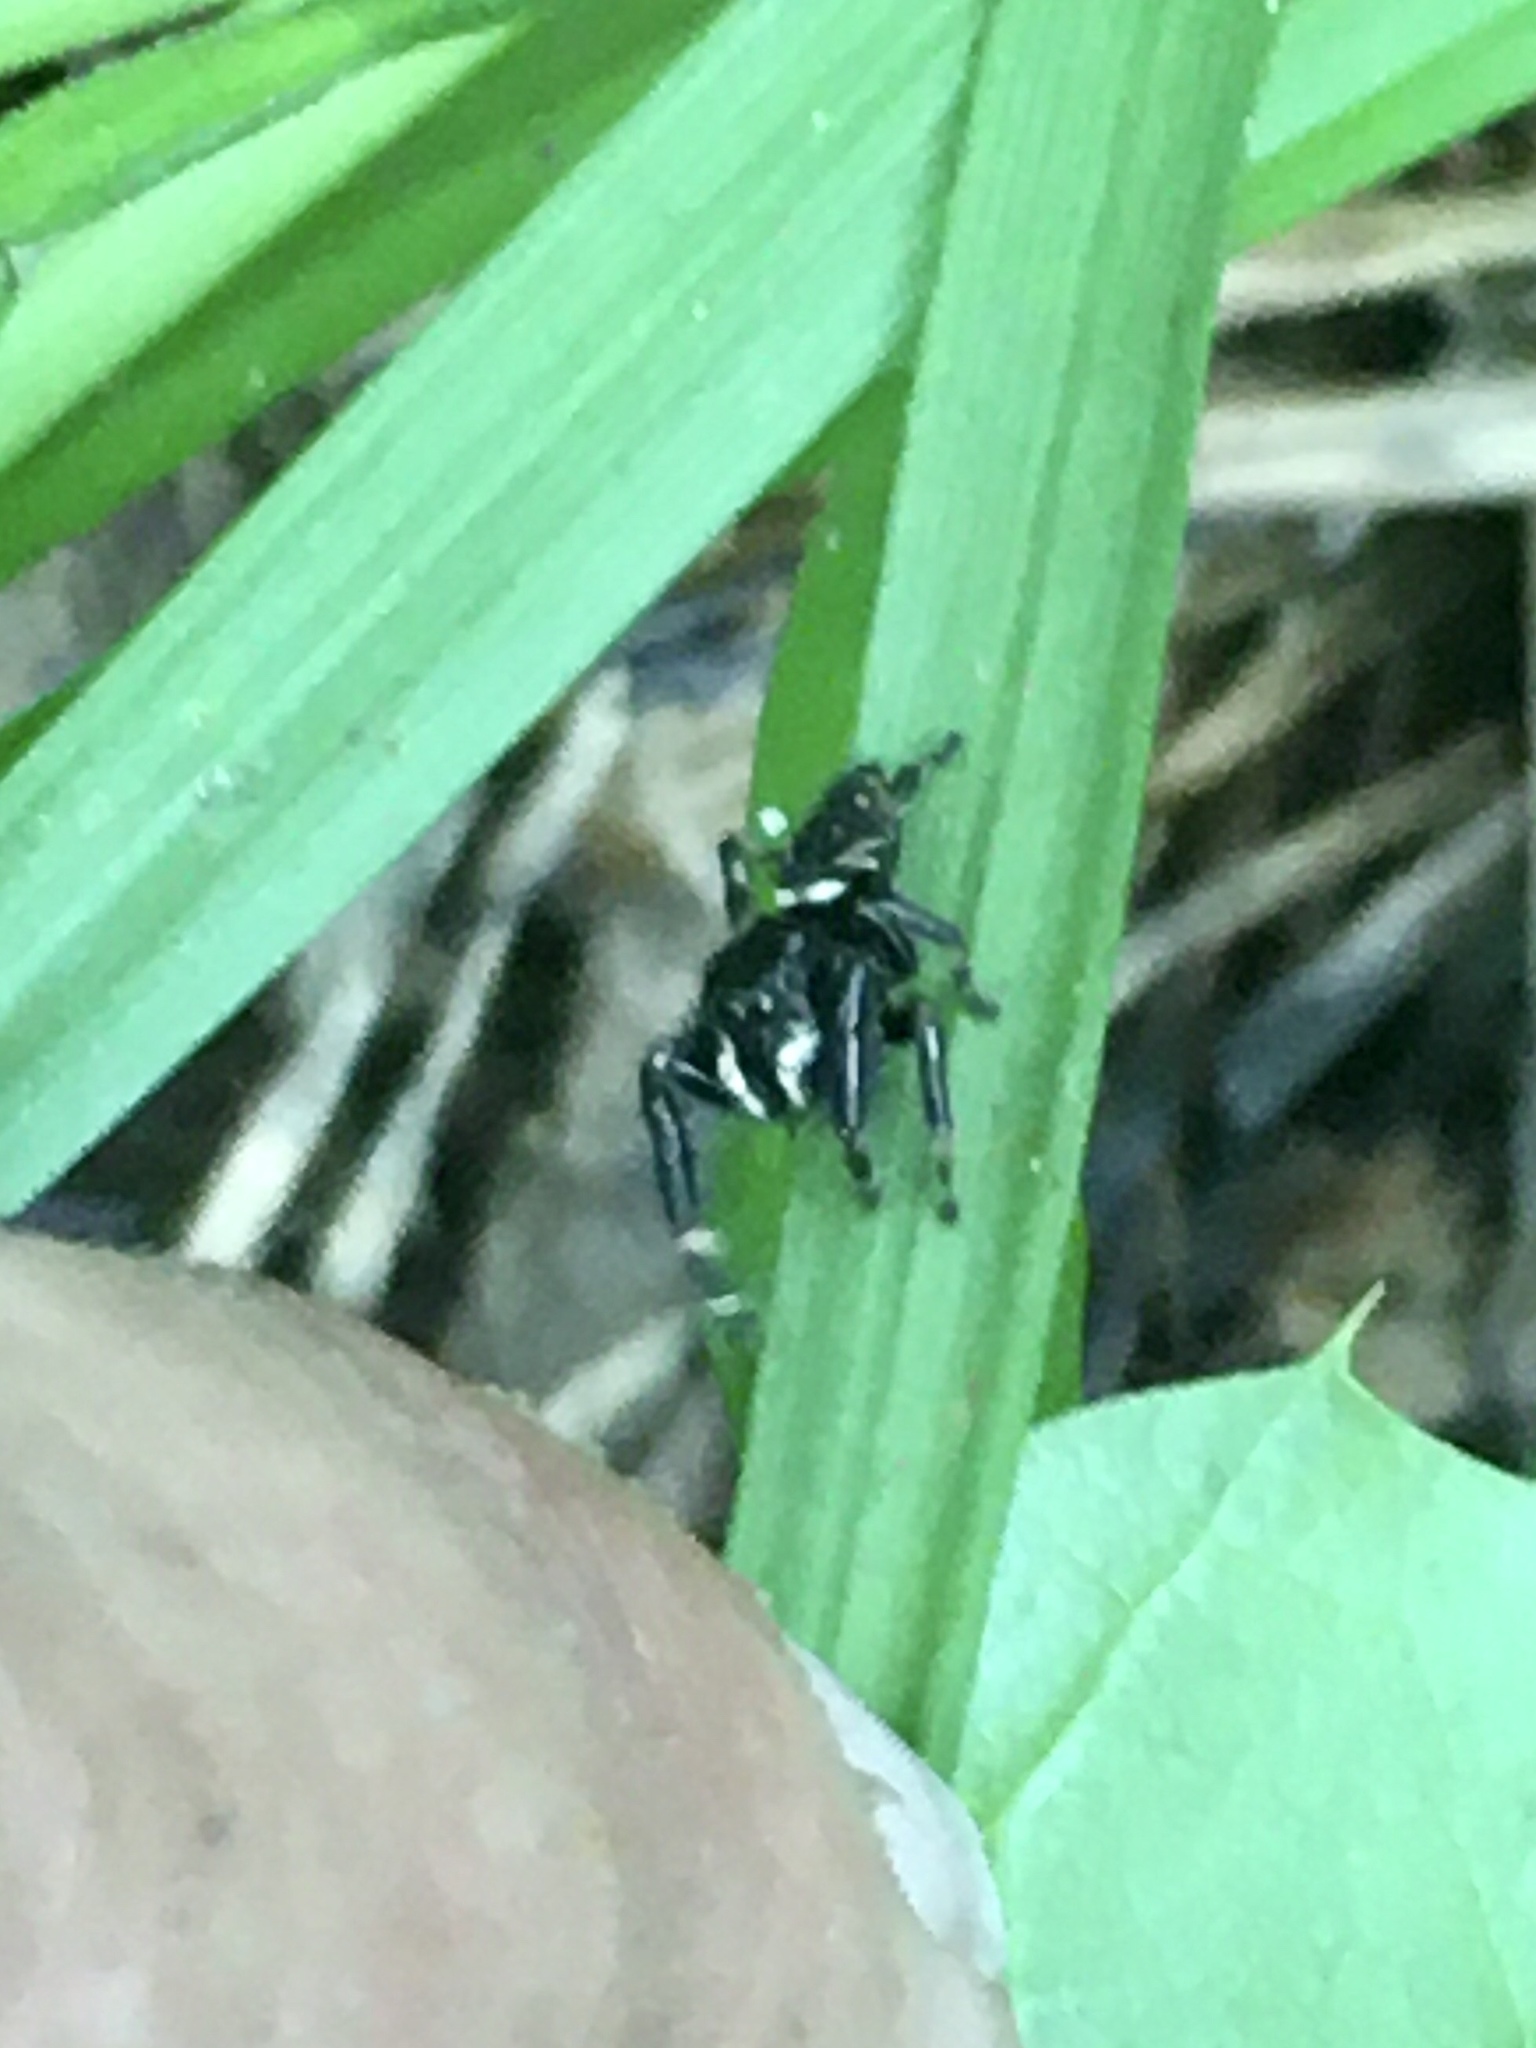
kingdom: Animalia
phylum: Arthropoda
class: Arachnida
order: Araneae
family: Salticidae
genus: Phidippus
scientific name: Phidippus clarus
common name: Brilliant jumping spider
